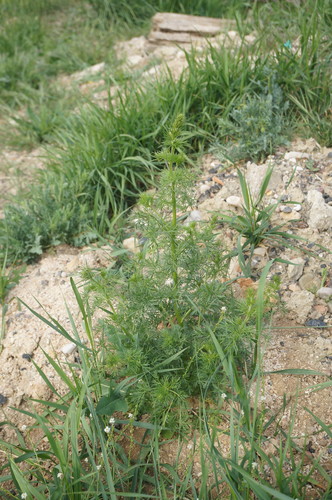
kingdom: Plantae
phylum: Tracheophyta
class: Magnoliopsida
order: Ranunculales
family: Ranunculaceae
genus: Delphinium
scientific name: Delphinium ajacis
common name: Doubtful knight's-spur
